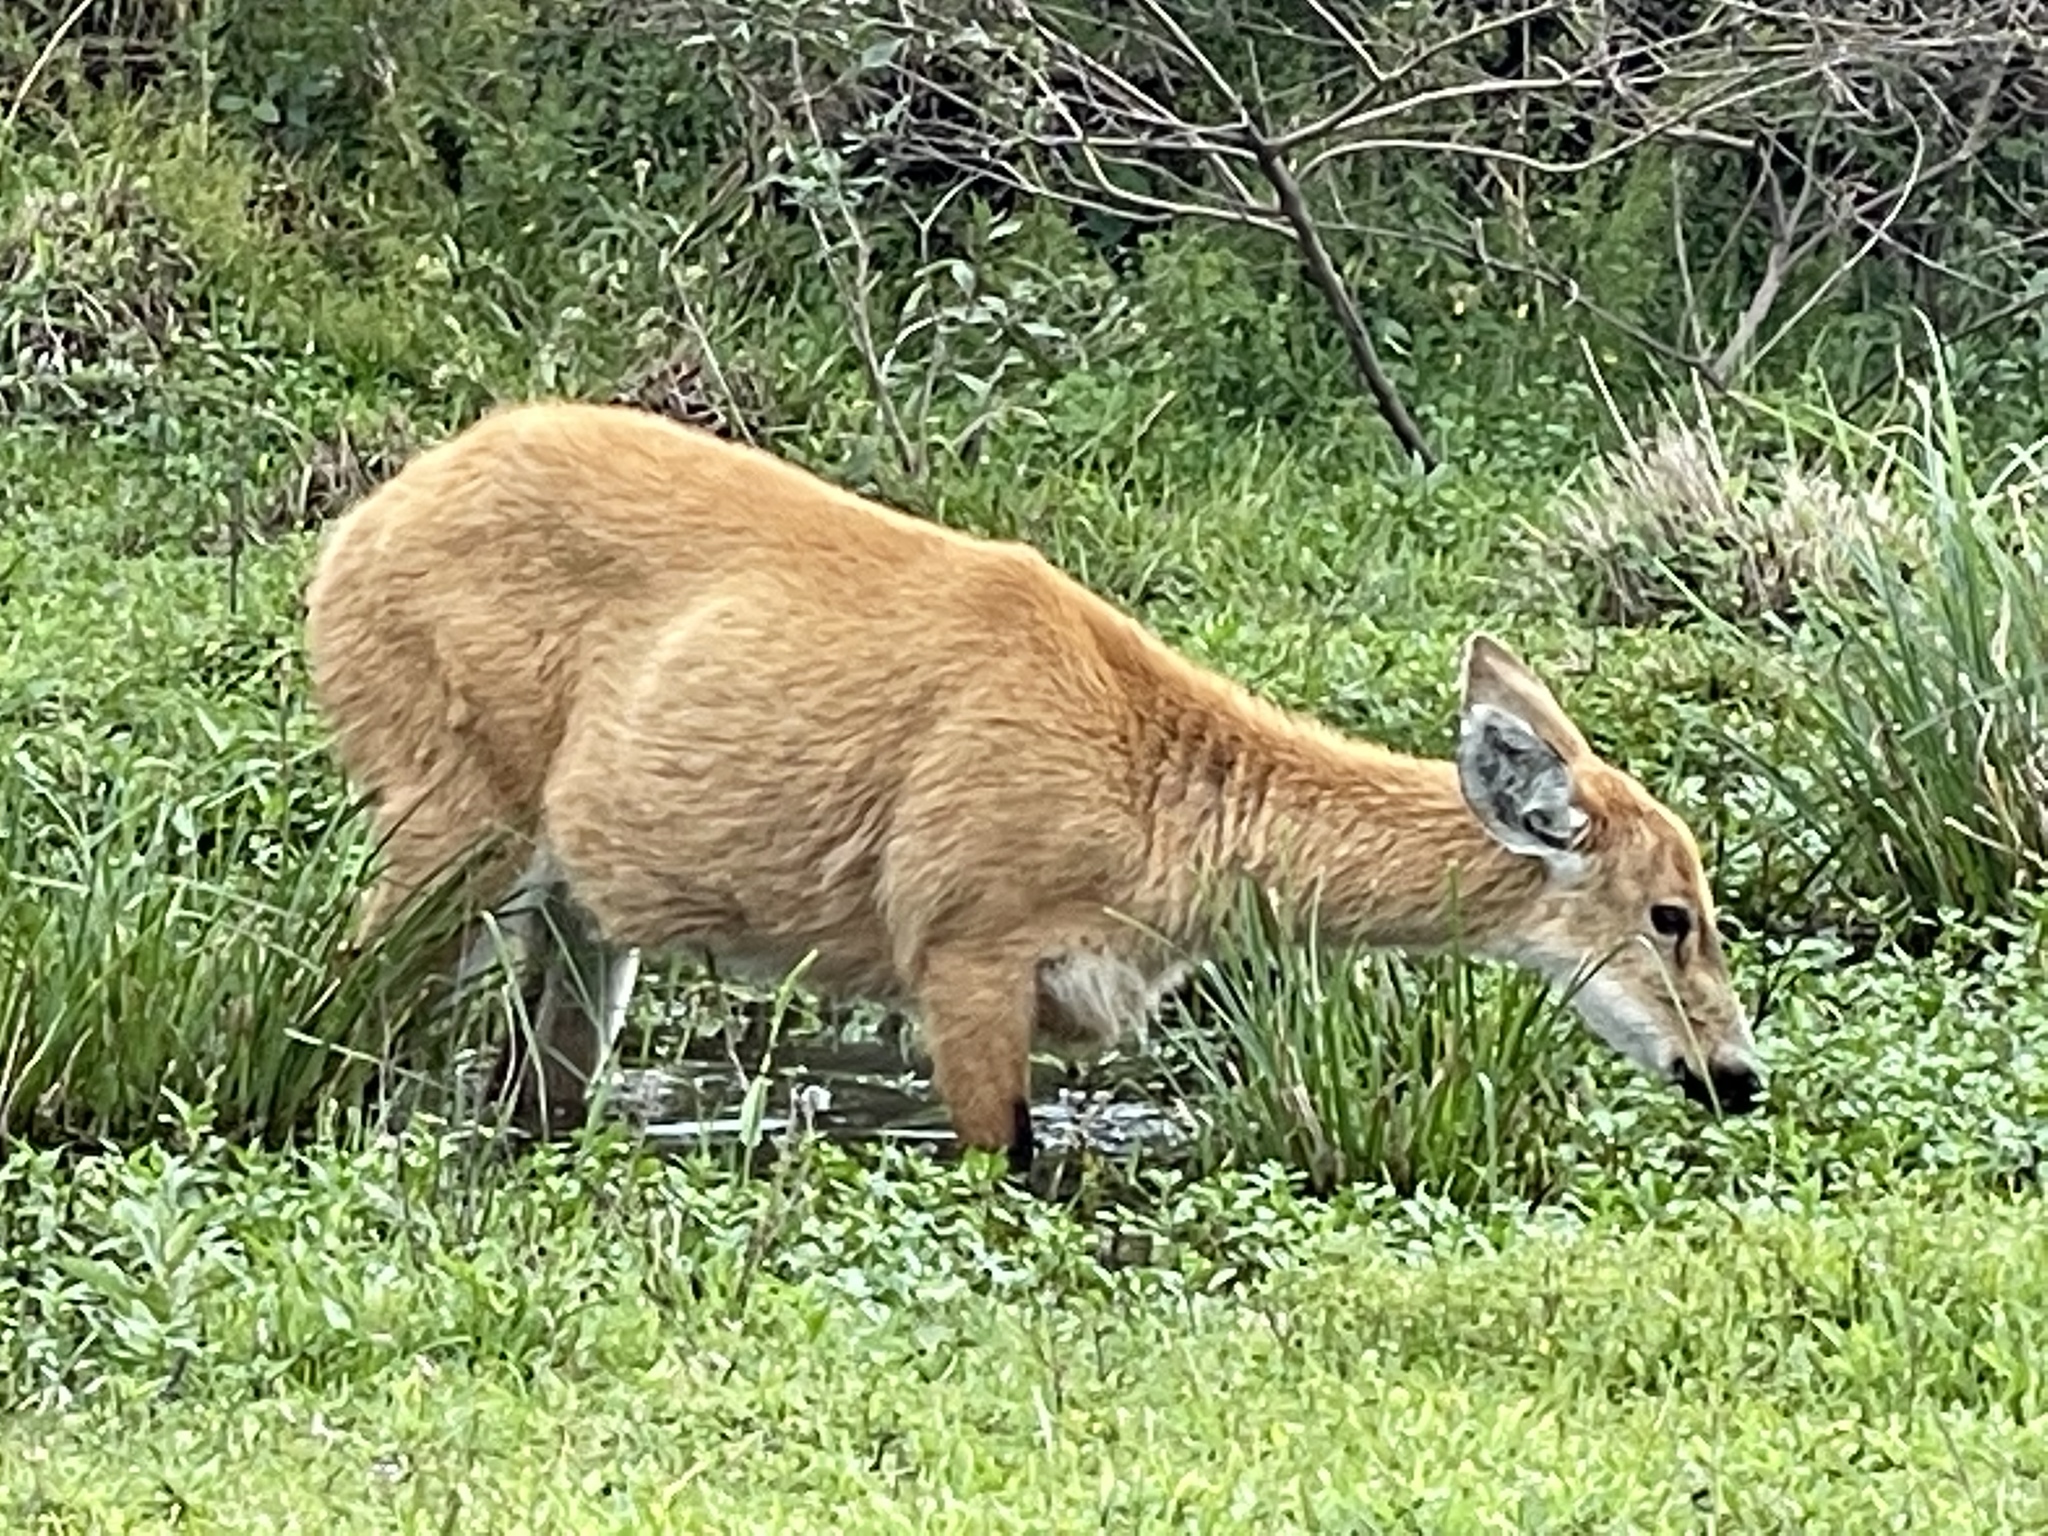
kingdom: Animalia
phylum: Chordata
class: Mammalia
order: Artiodactyla
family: Cervidae
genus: Blastocerus
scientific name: Blastocerus dichotomus
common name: Marsh deer
